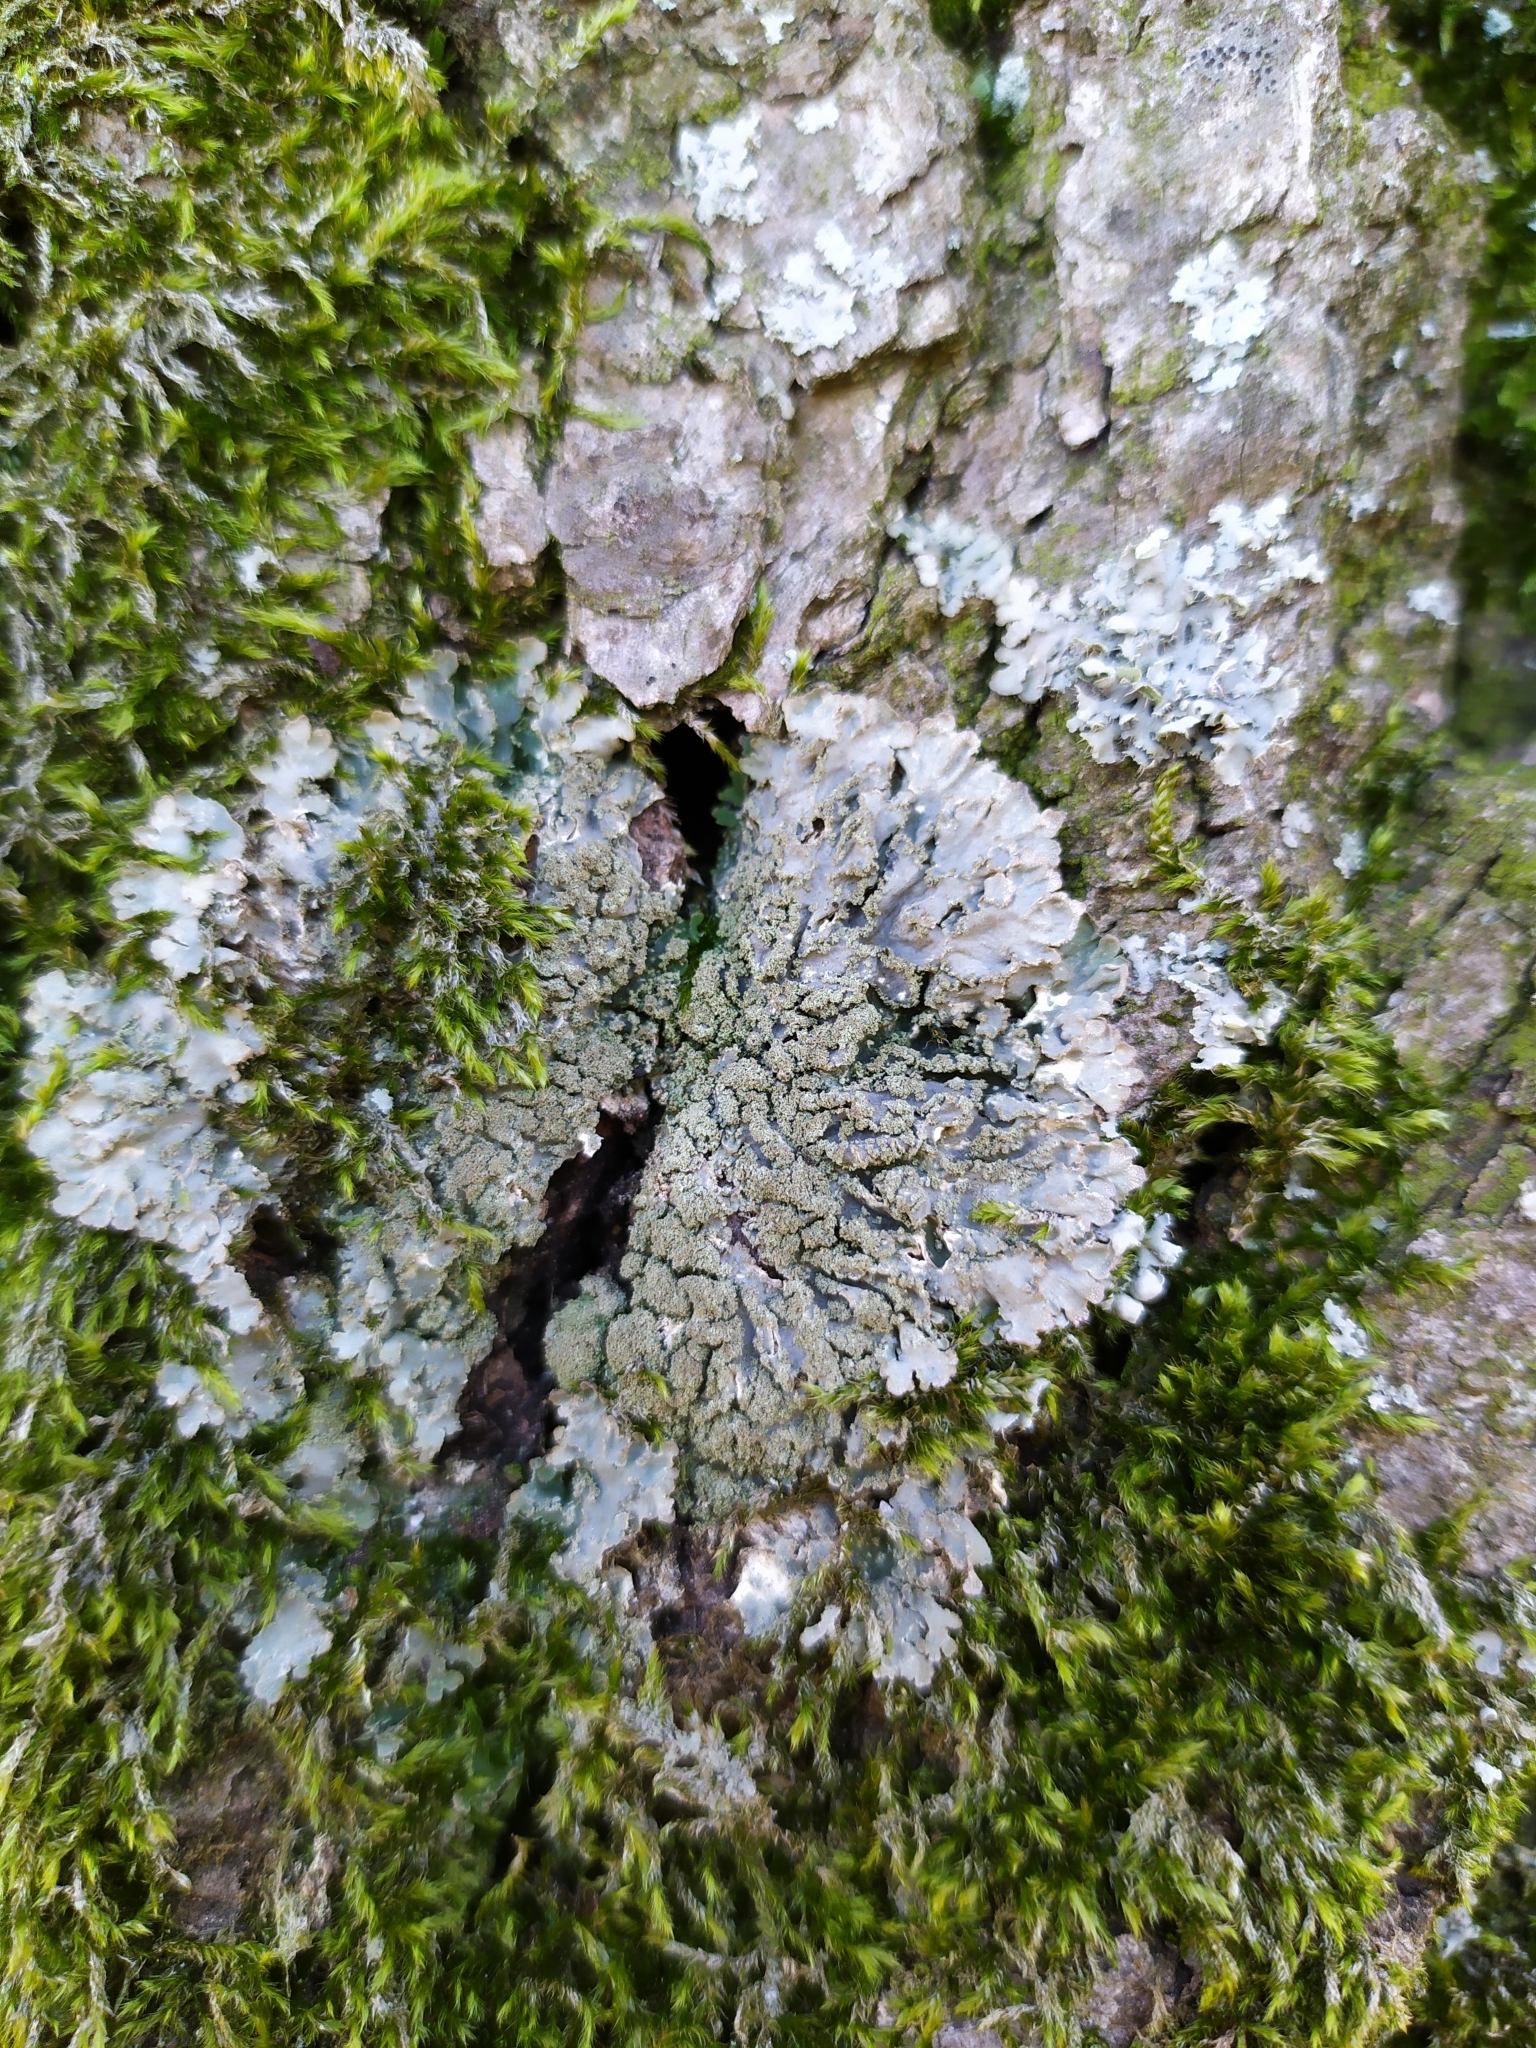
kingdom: Fungi
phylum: Ascomycota
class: Lecanoromycetes
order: Caliciales
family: Physciaceae
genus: Poeltonia
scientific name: Poeltonia grisea
